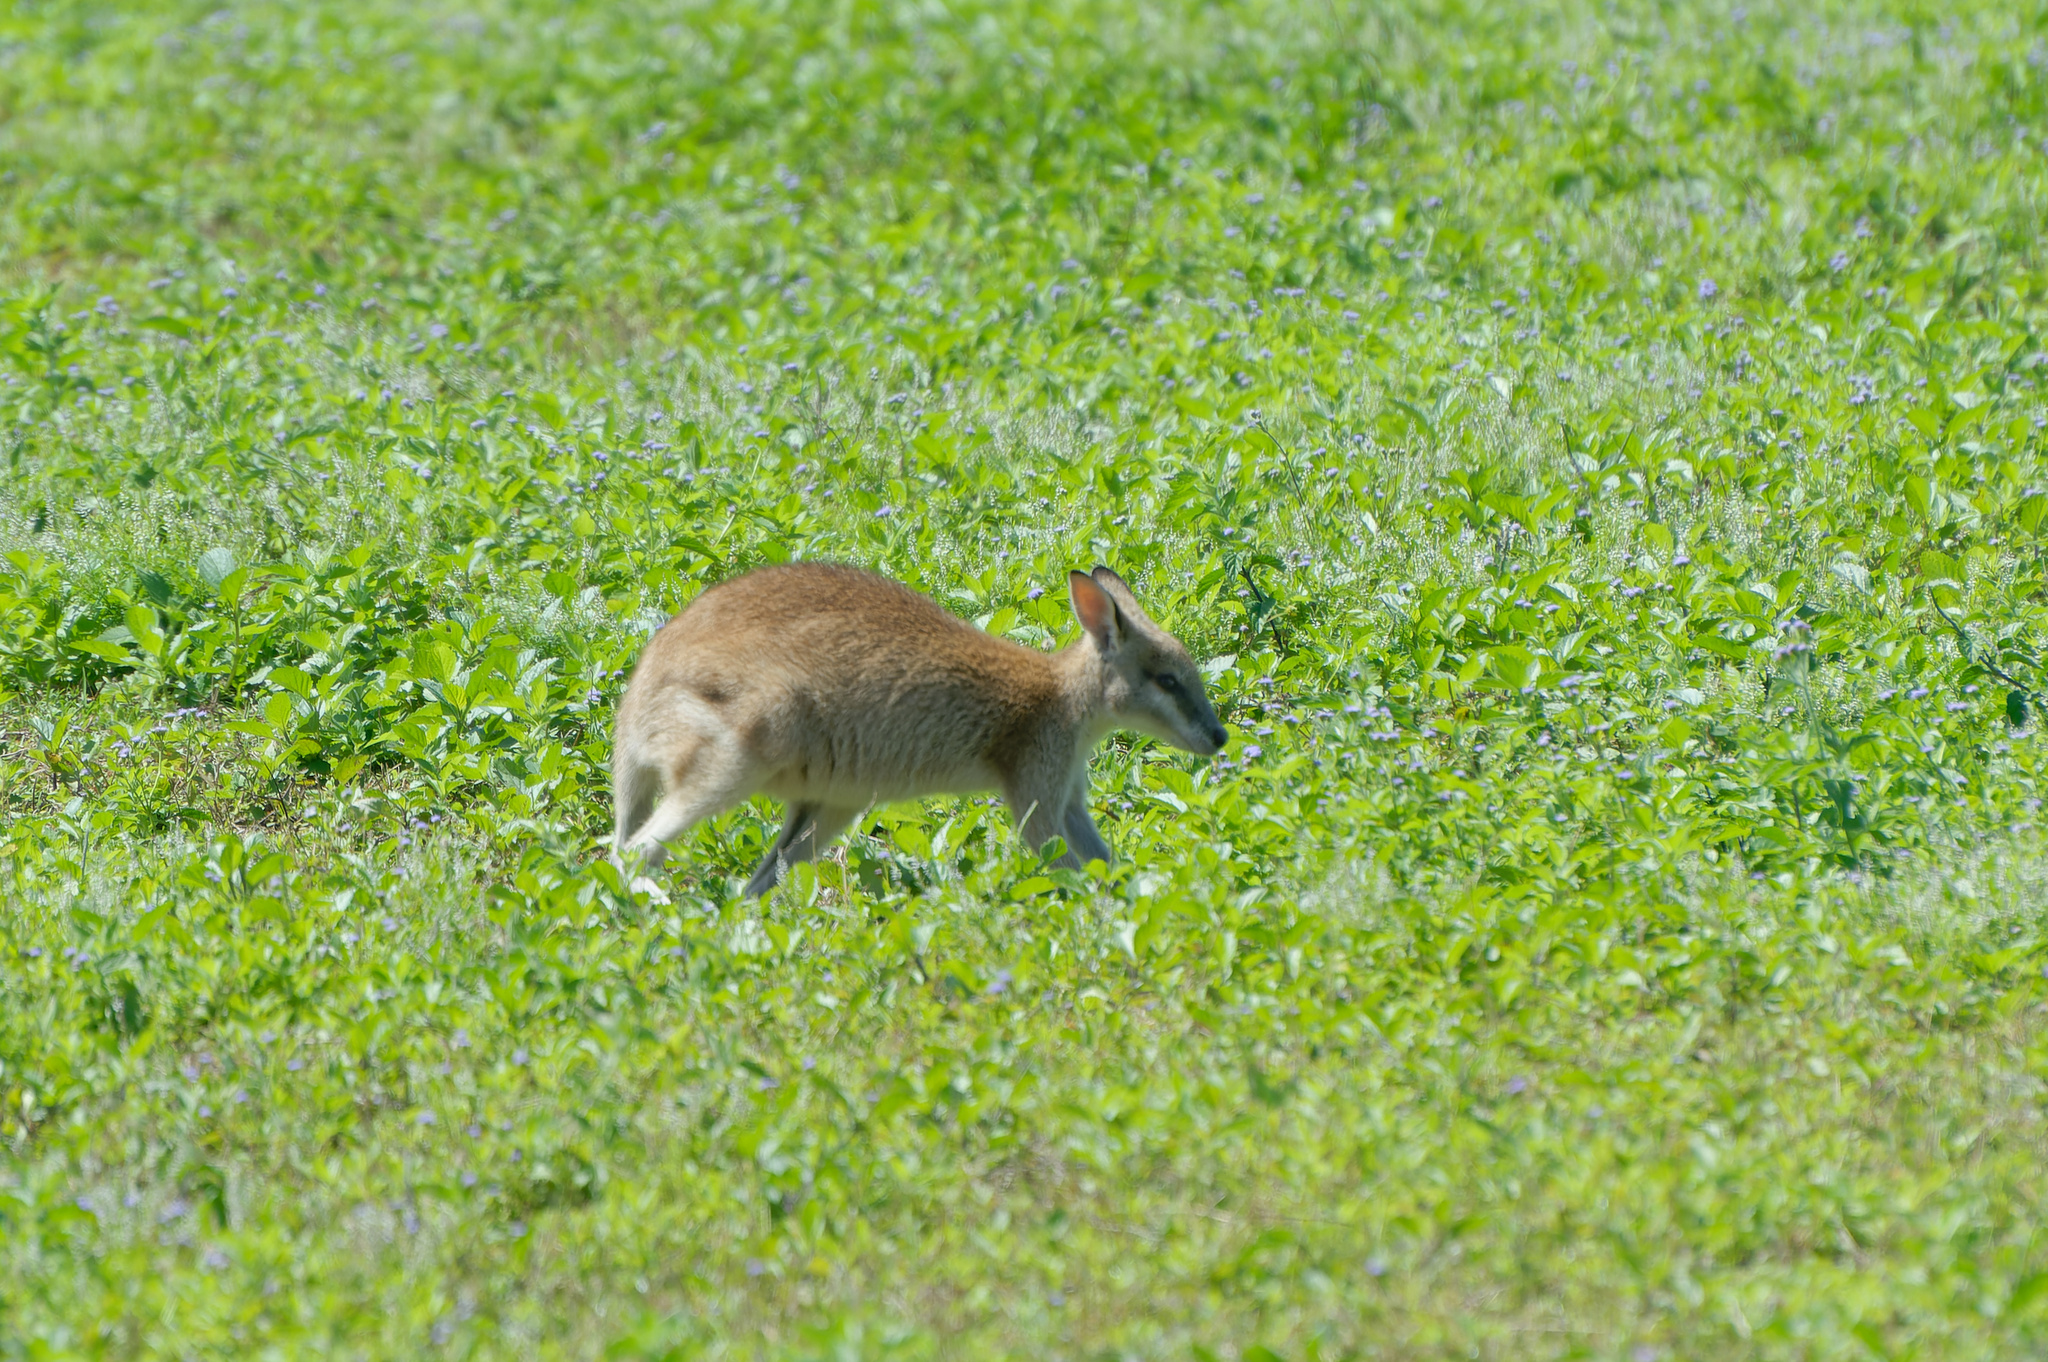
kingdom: Animalia
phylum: Chordata
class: Mammalia
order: Diprotodontia
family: Macropodidae
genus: Macropus
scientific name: Macropus agilis
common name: Agile wallaby
